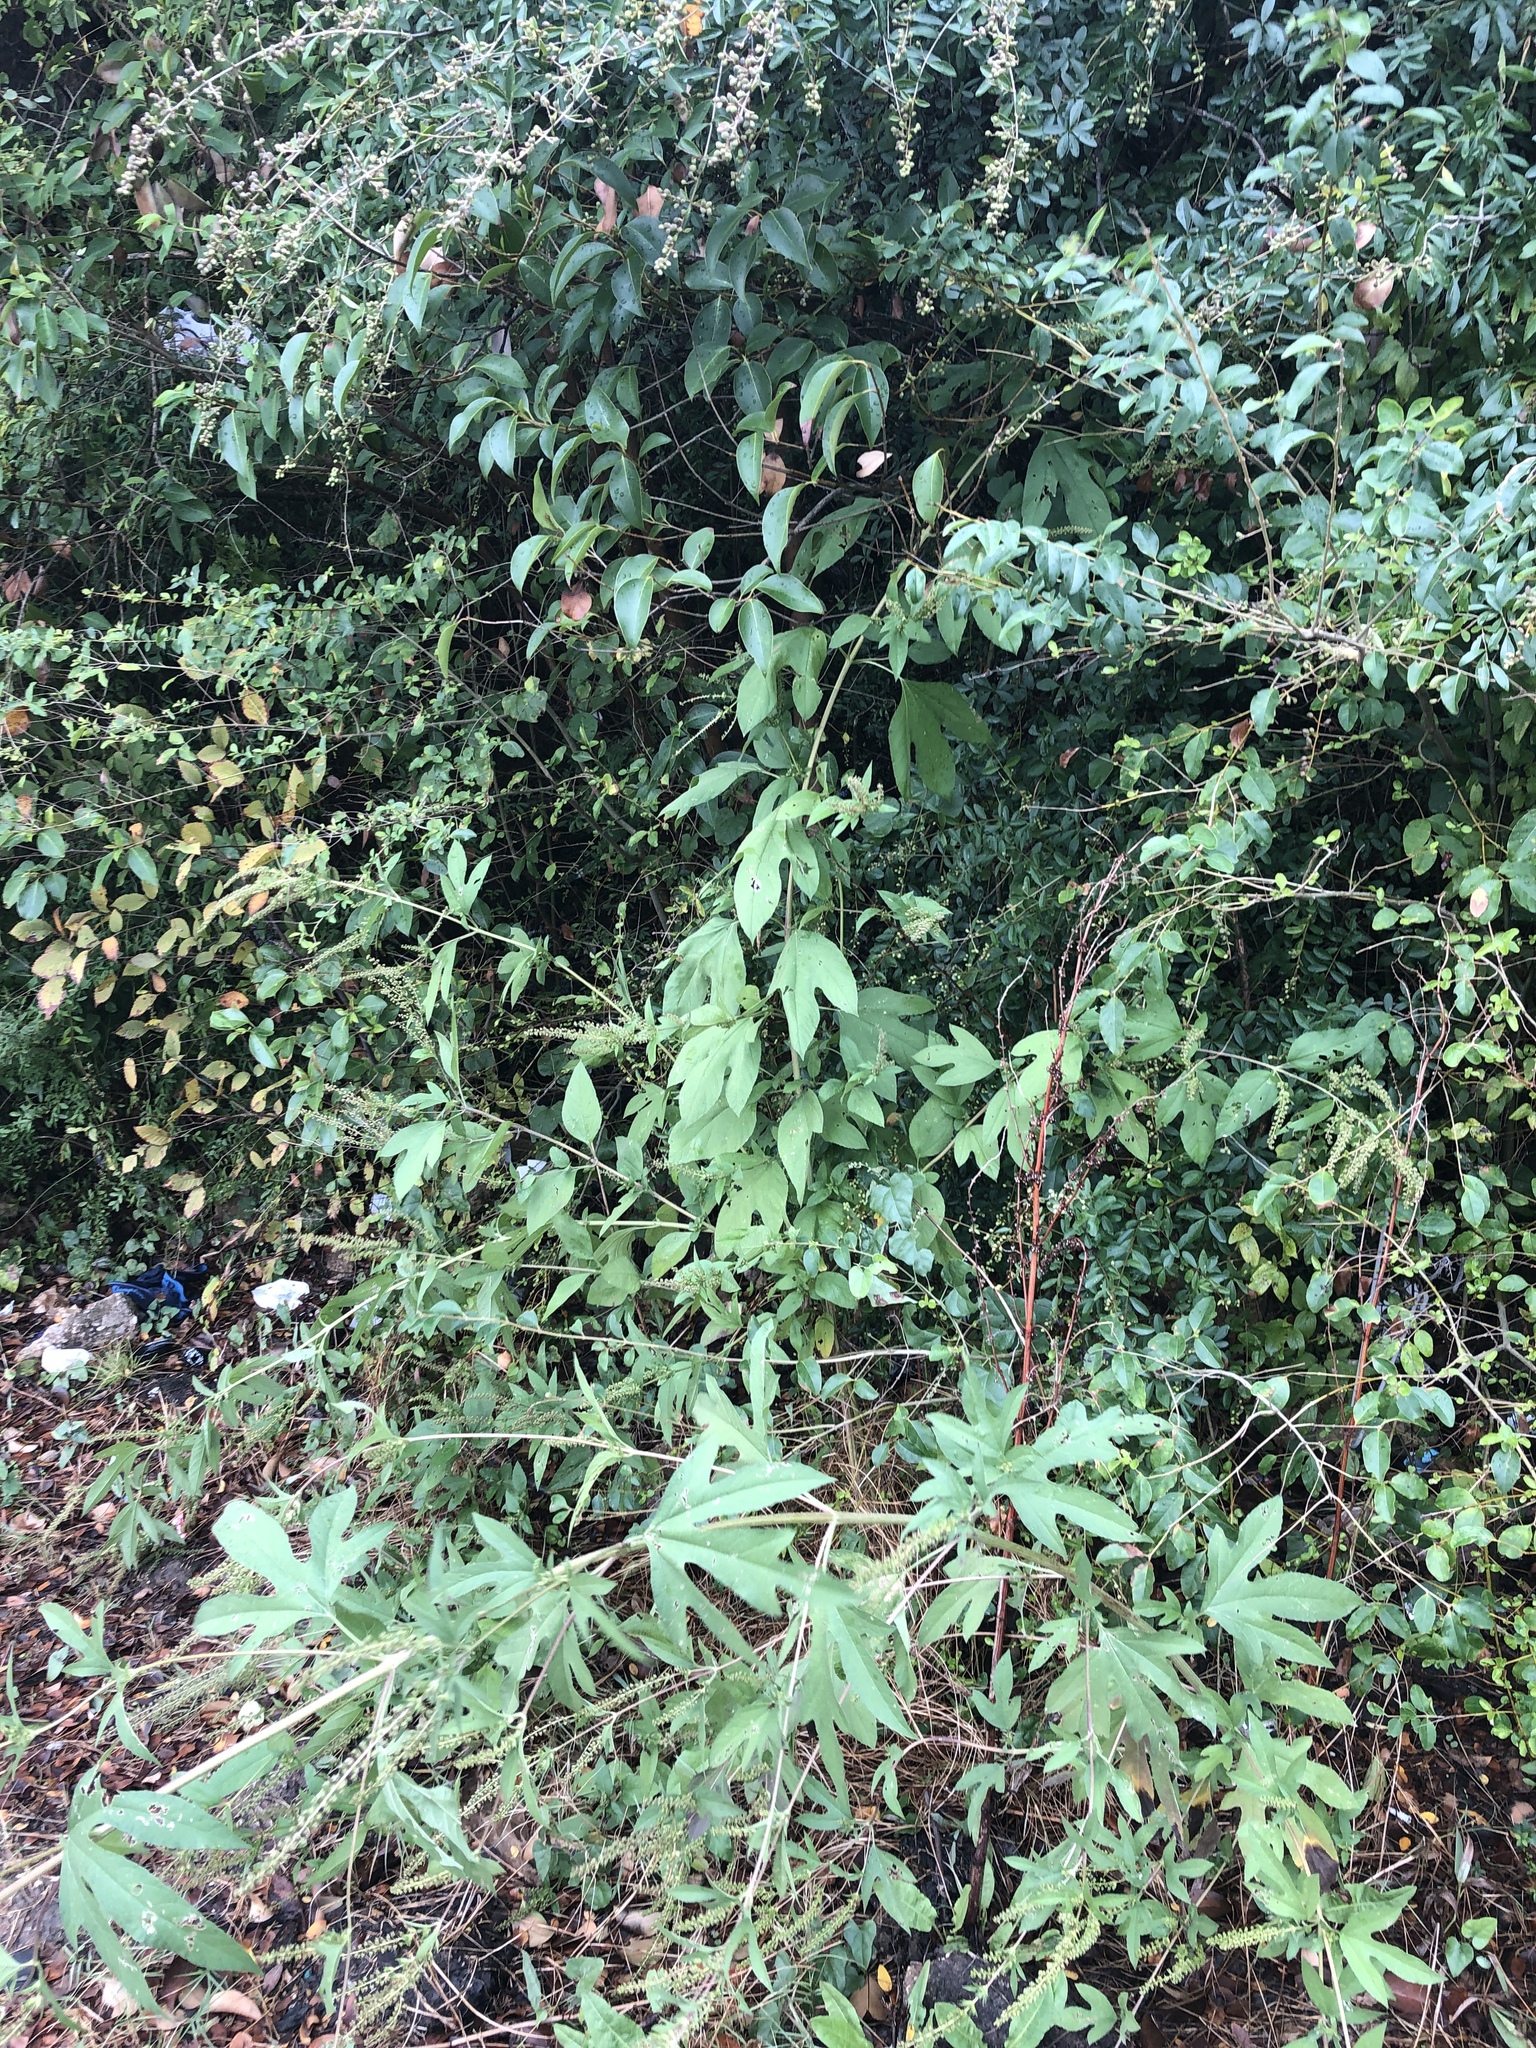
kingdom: Plantae
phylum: Tracheophyta
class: Magnoliopsida
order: Asterales
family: Asteraceae
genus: Ambrosia
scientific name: Ambrosia trifida
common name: Giant ragweed
